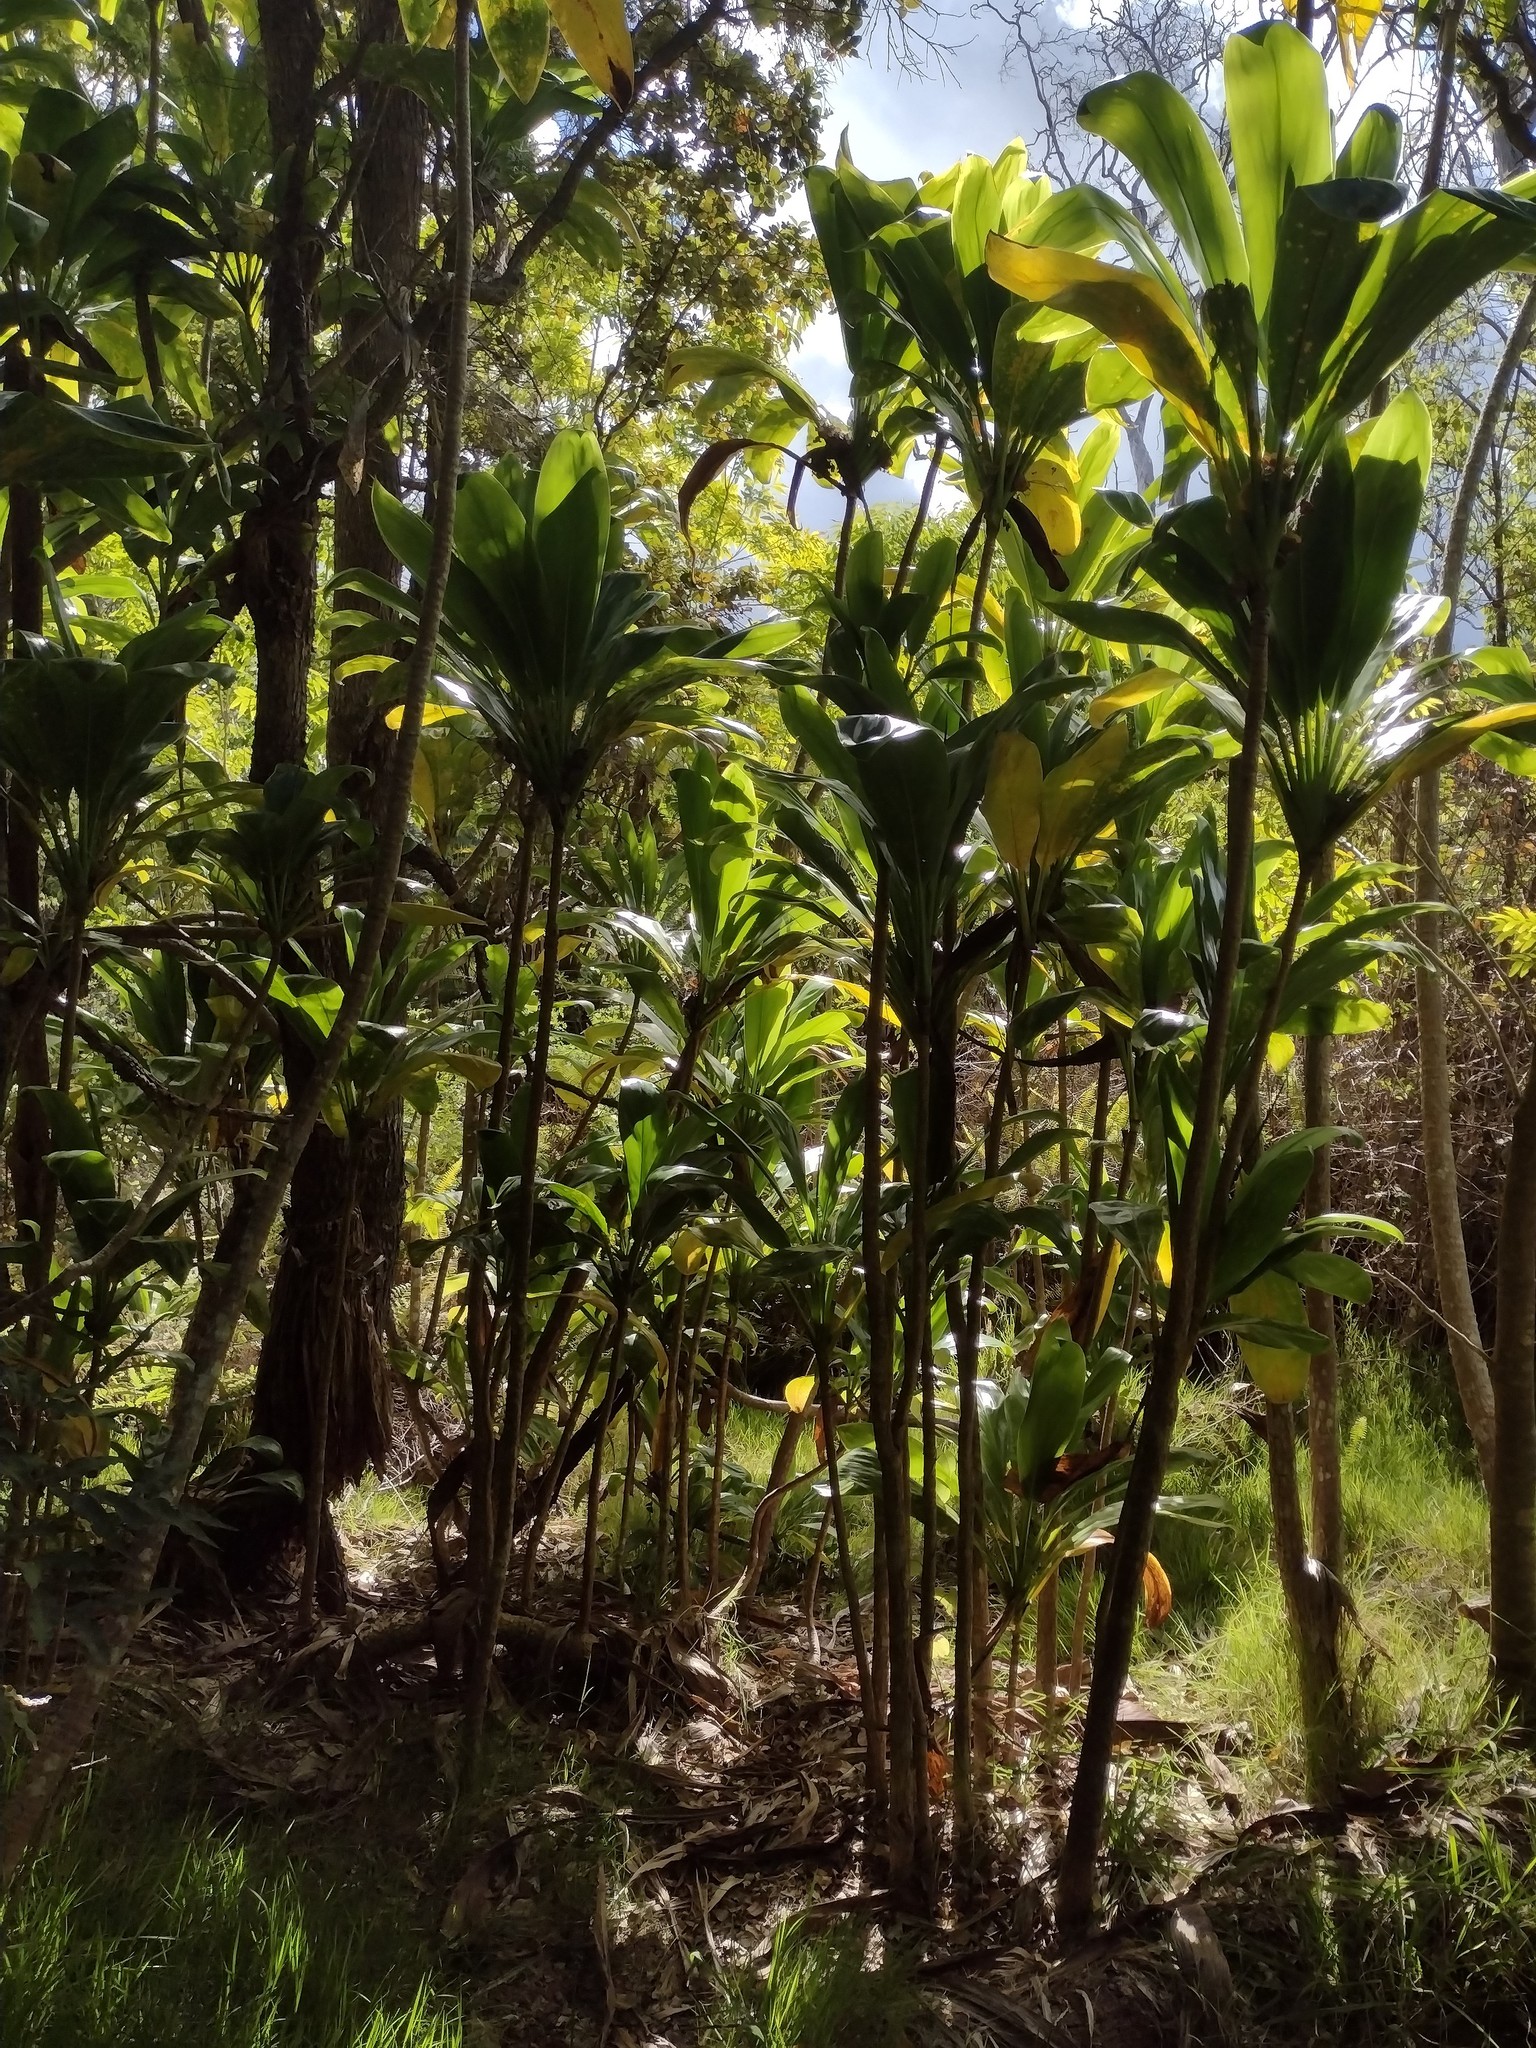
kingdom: Plantae
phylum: Tracheophyta
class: Liliopsida
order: Asparagales
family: Asparagaceae
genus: Cordyline
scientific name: Cordyline fruticosa
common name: Good-luck-plant
